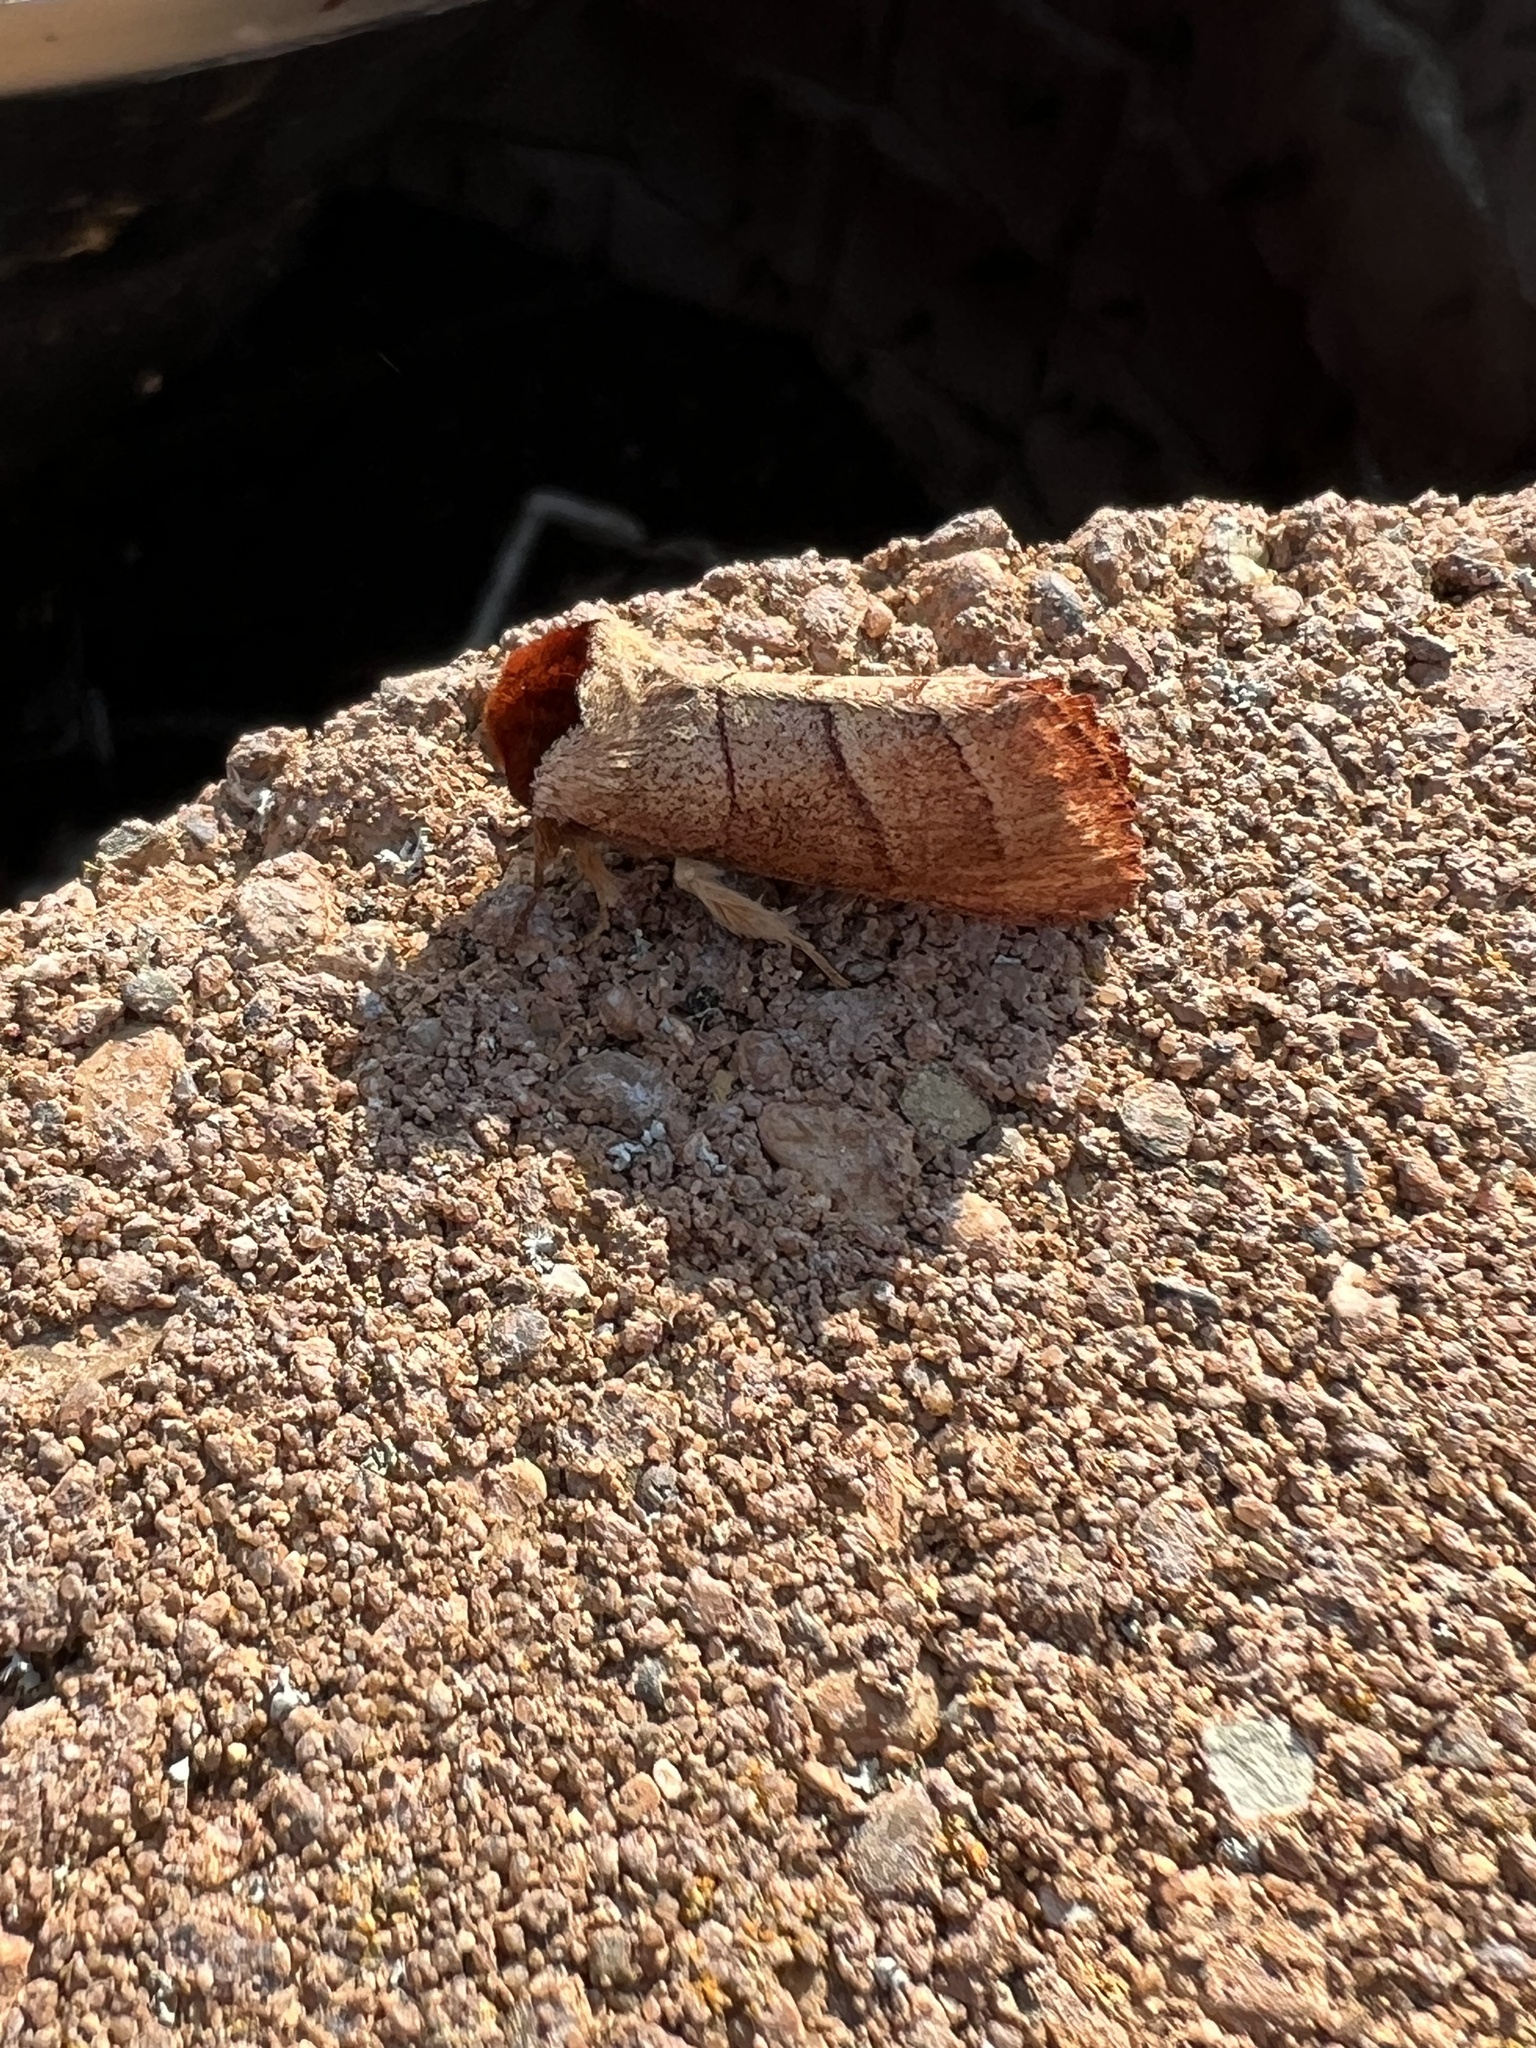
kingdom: Animalia
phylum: Arthropoda
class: Insecta
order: Lepidoptera
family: Notodontidae
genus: Datana
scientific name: Datana ministra
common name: Yellow-necked caterpillar moth
